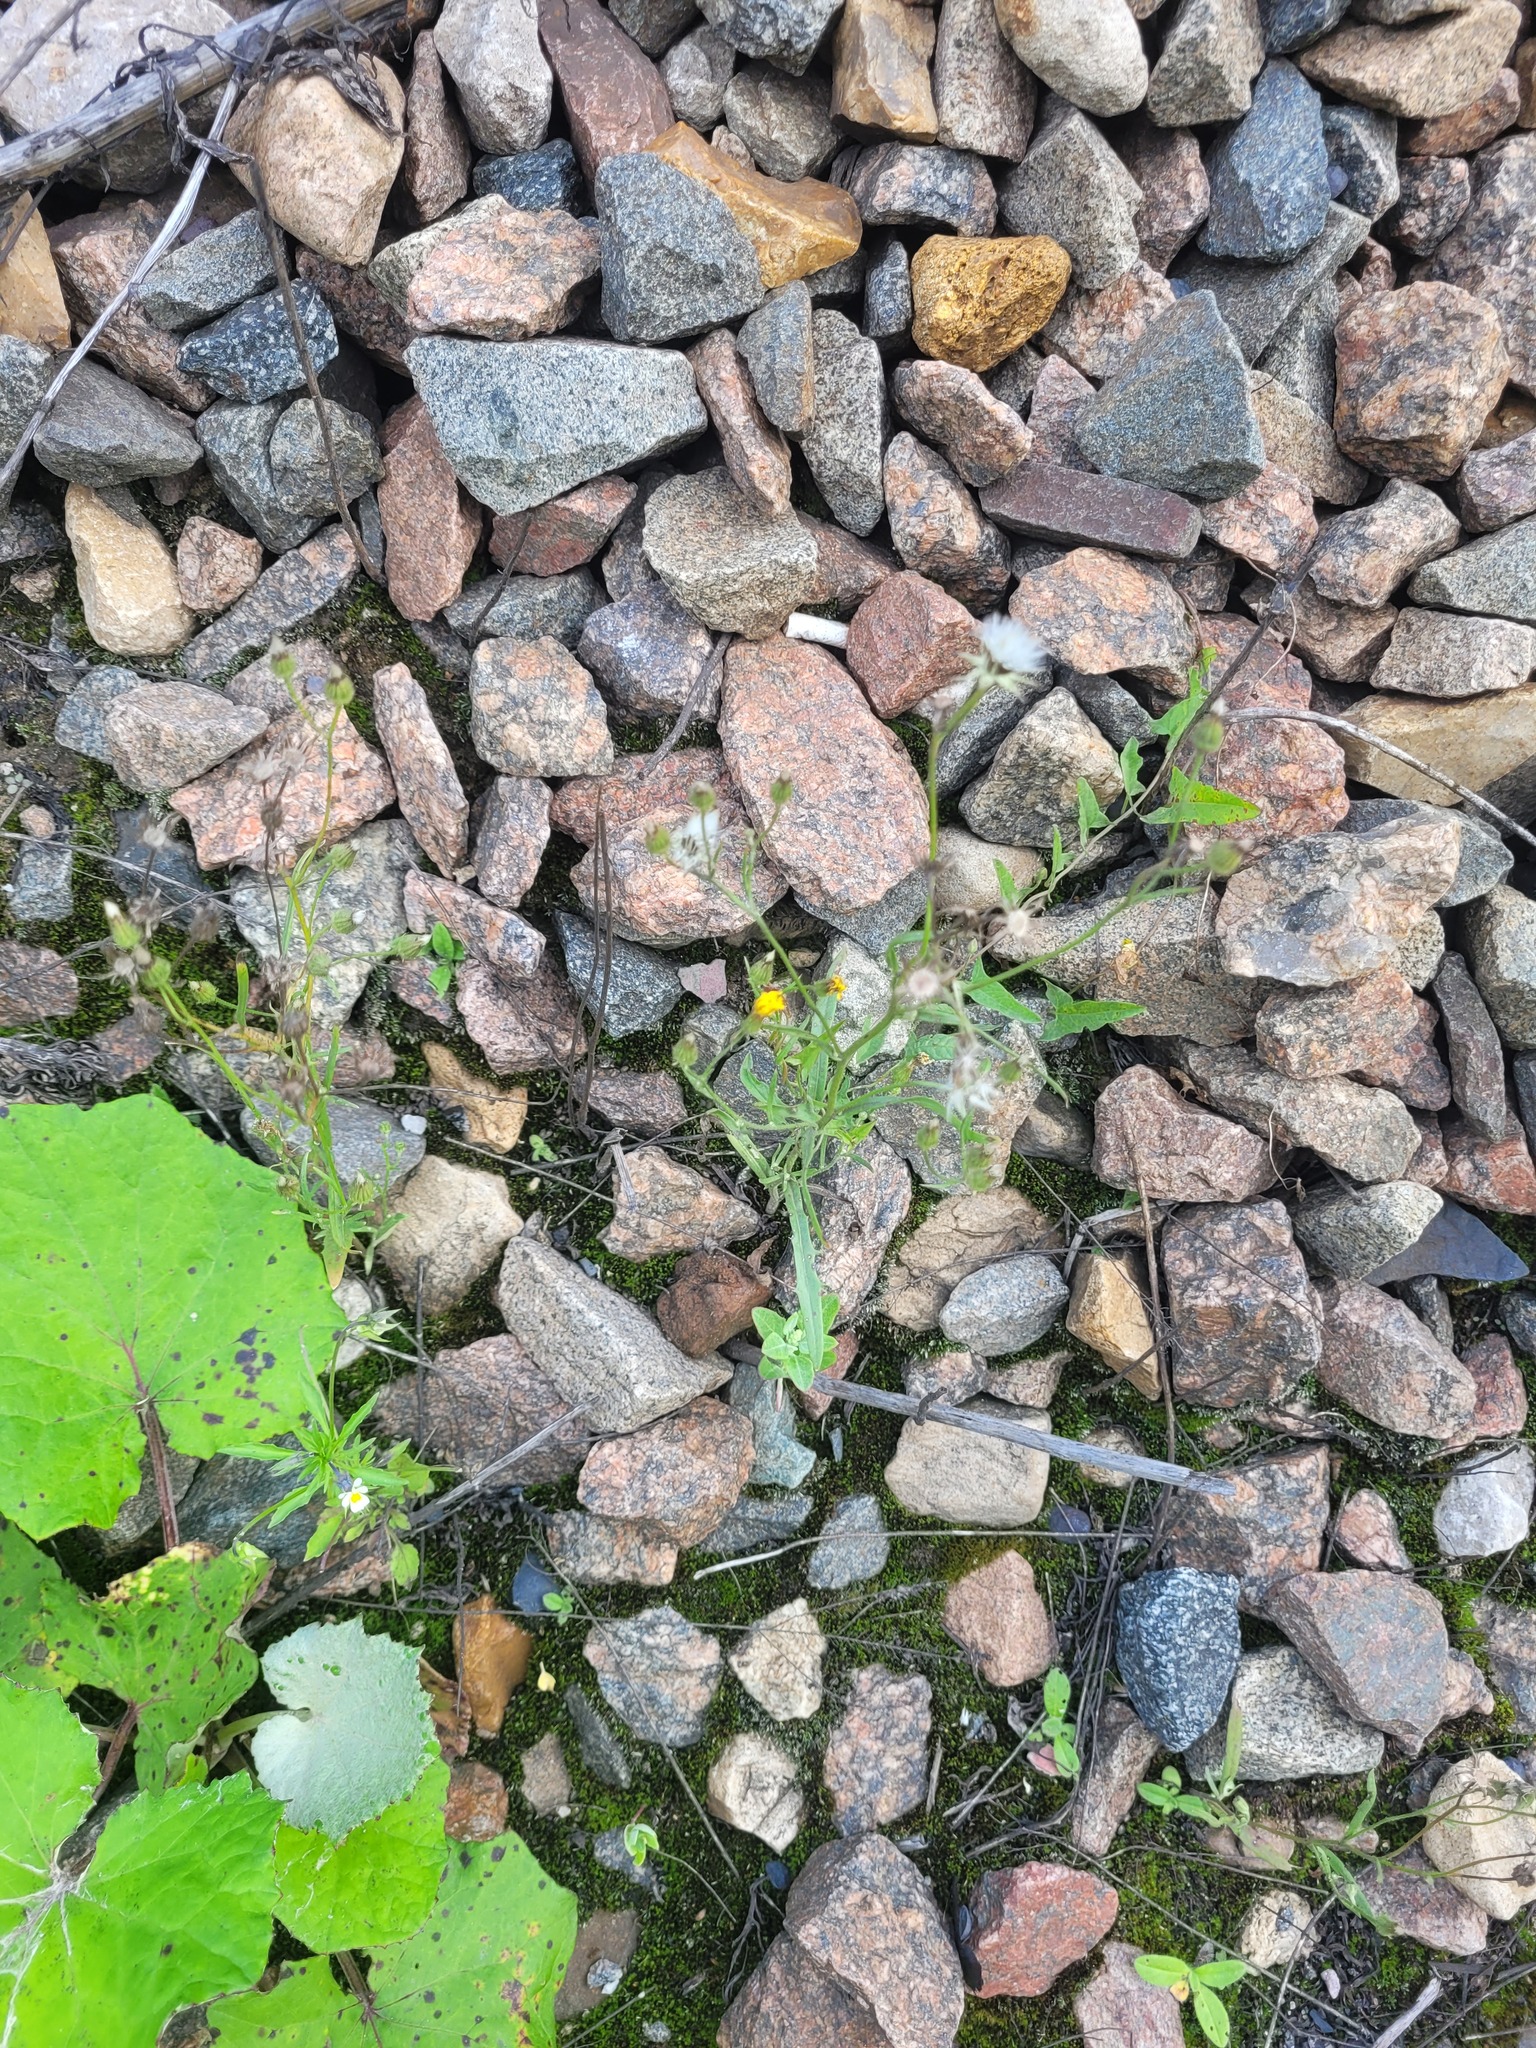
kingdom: Plantae
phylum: Tracheophyta
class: Magnoliopsida
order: Asterales
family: Asteraceae
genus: Crepis
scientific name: Crepis tectorum
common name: Narrow-leaved hawk's-beard
